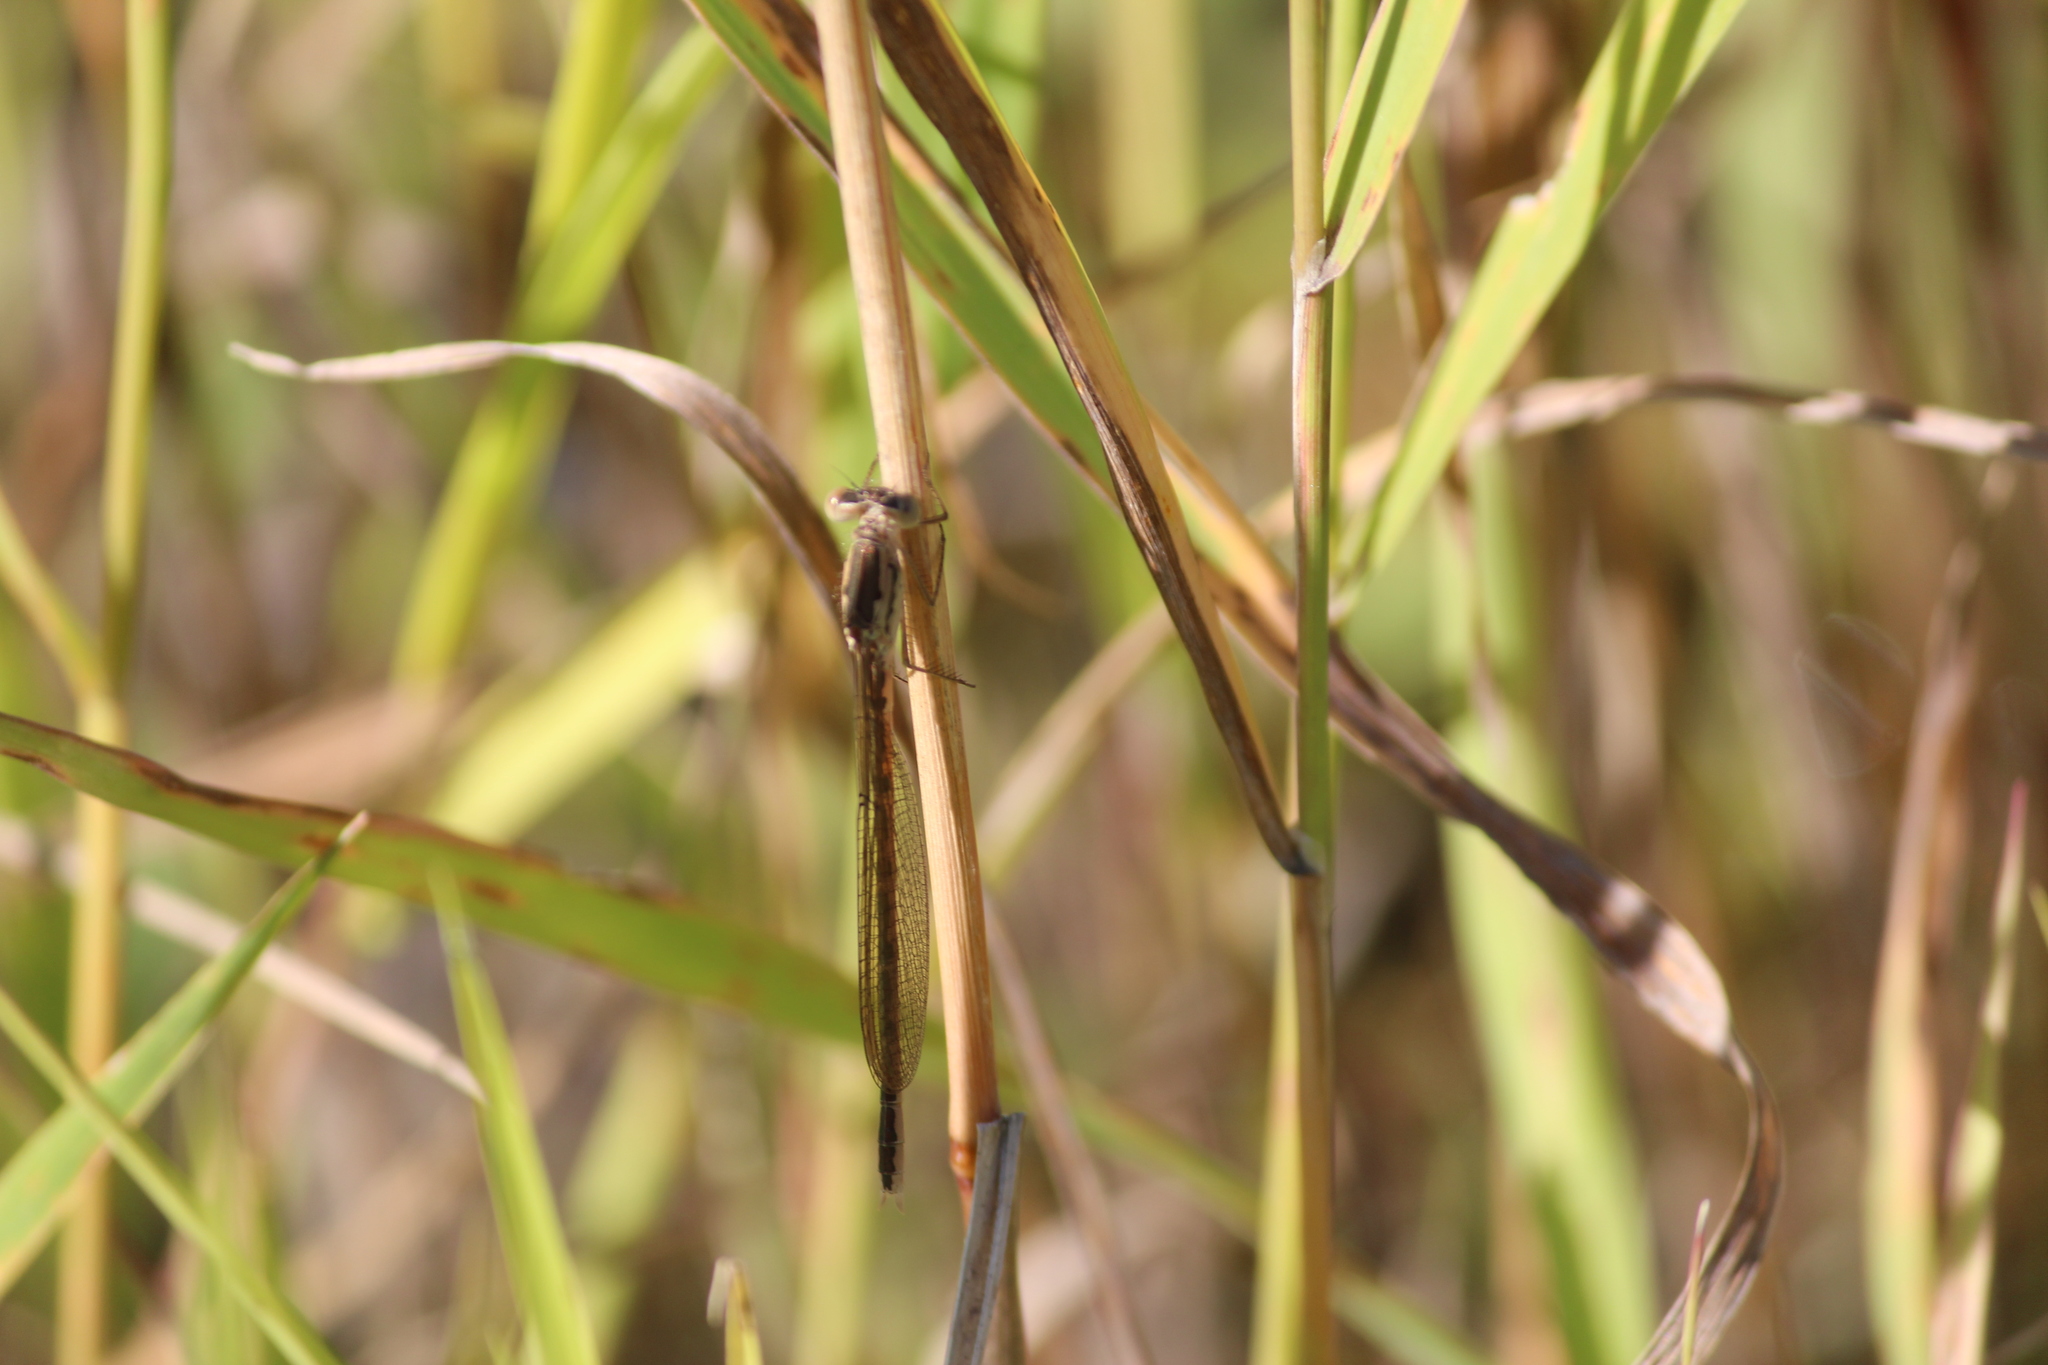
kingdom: Animalia
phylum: Arthropoda
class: Insecta
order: Odonata
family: Lestidae
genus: Sympecma
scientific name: Sympecma paedisca
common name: Siberian winter damsel
